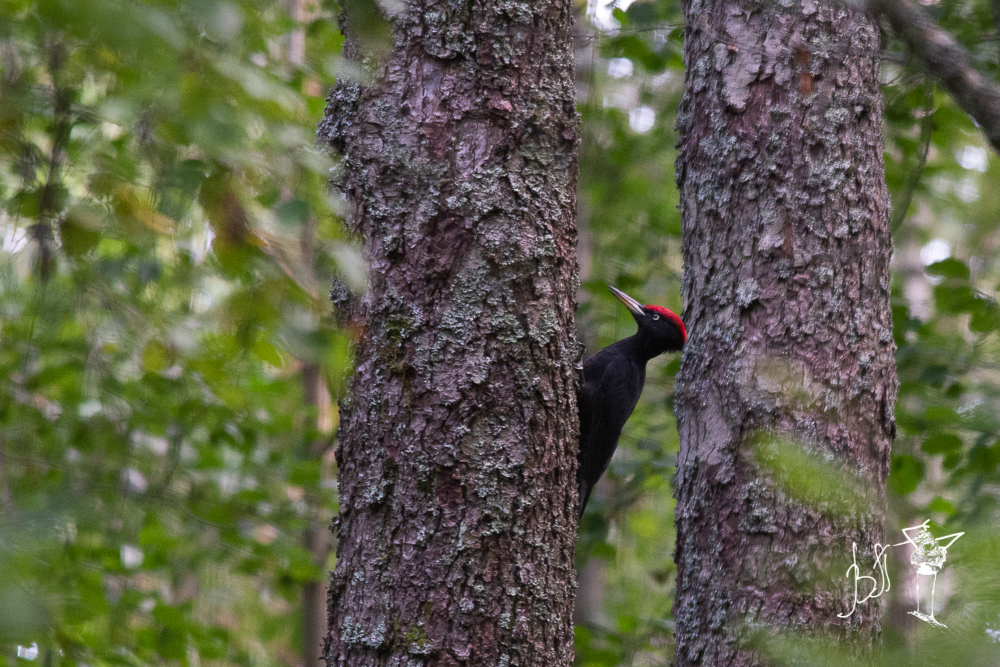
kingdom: Animalia
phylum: Chordata
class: Aves
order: Piciformes
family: Picidae
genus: Dryocopus
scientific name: Dryocopus martius
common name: Black woodpecker
